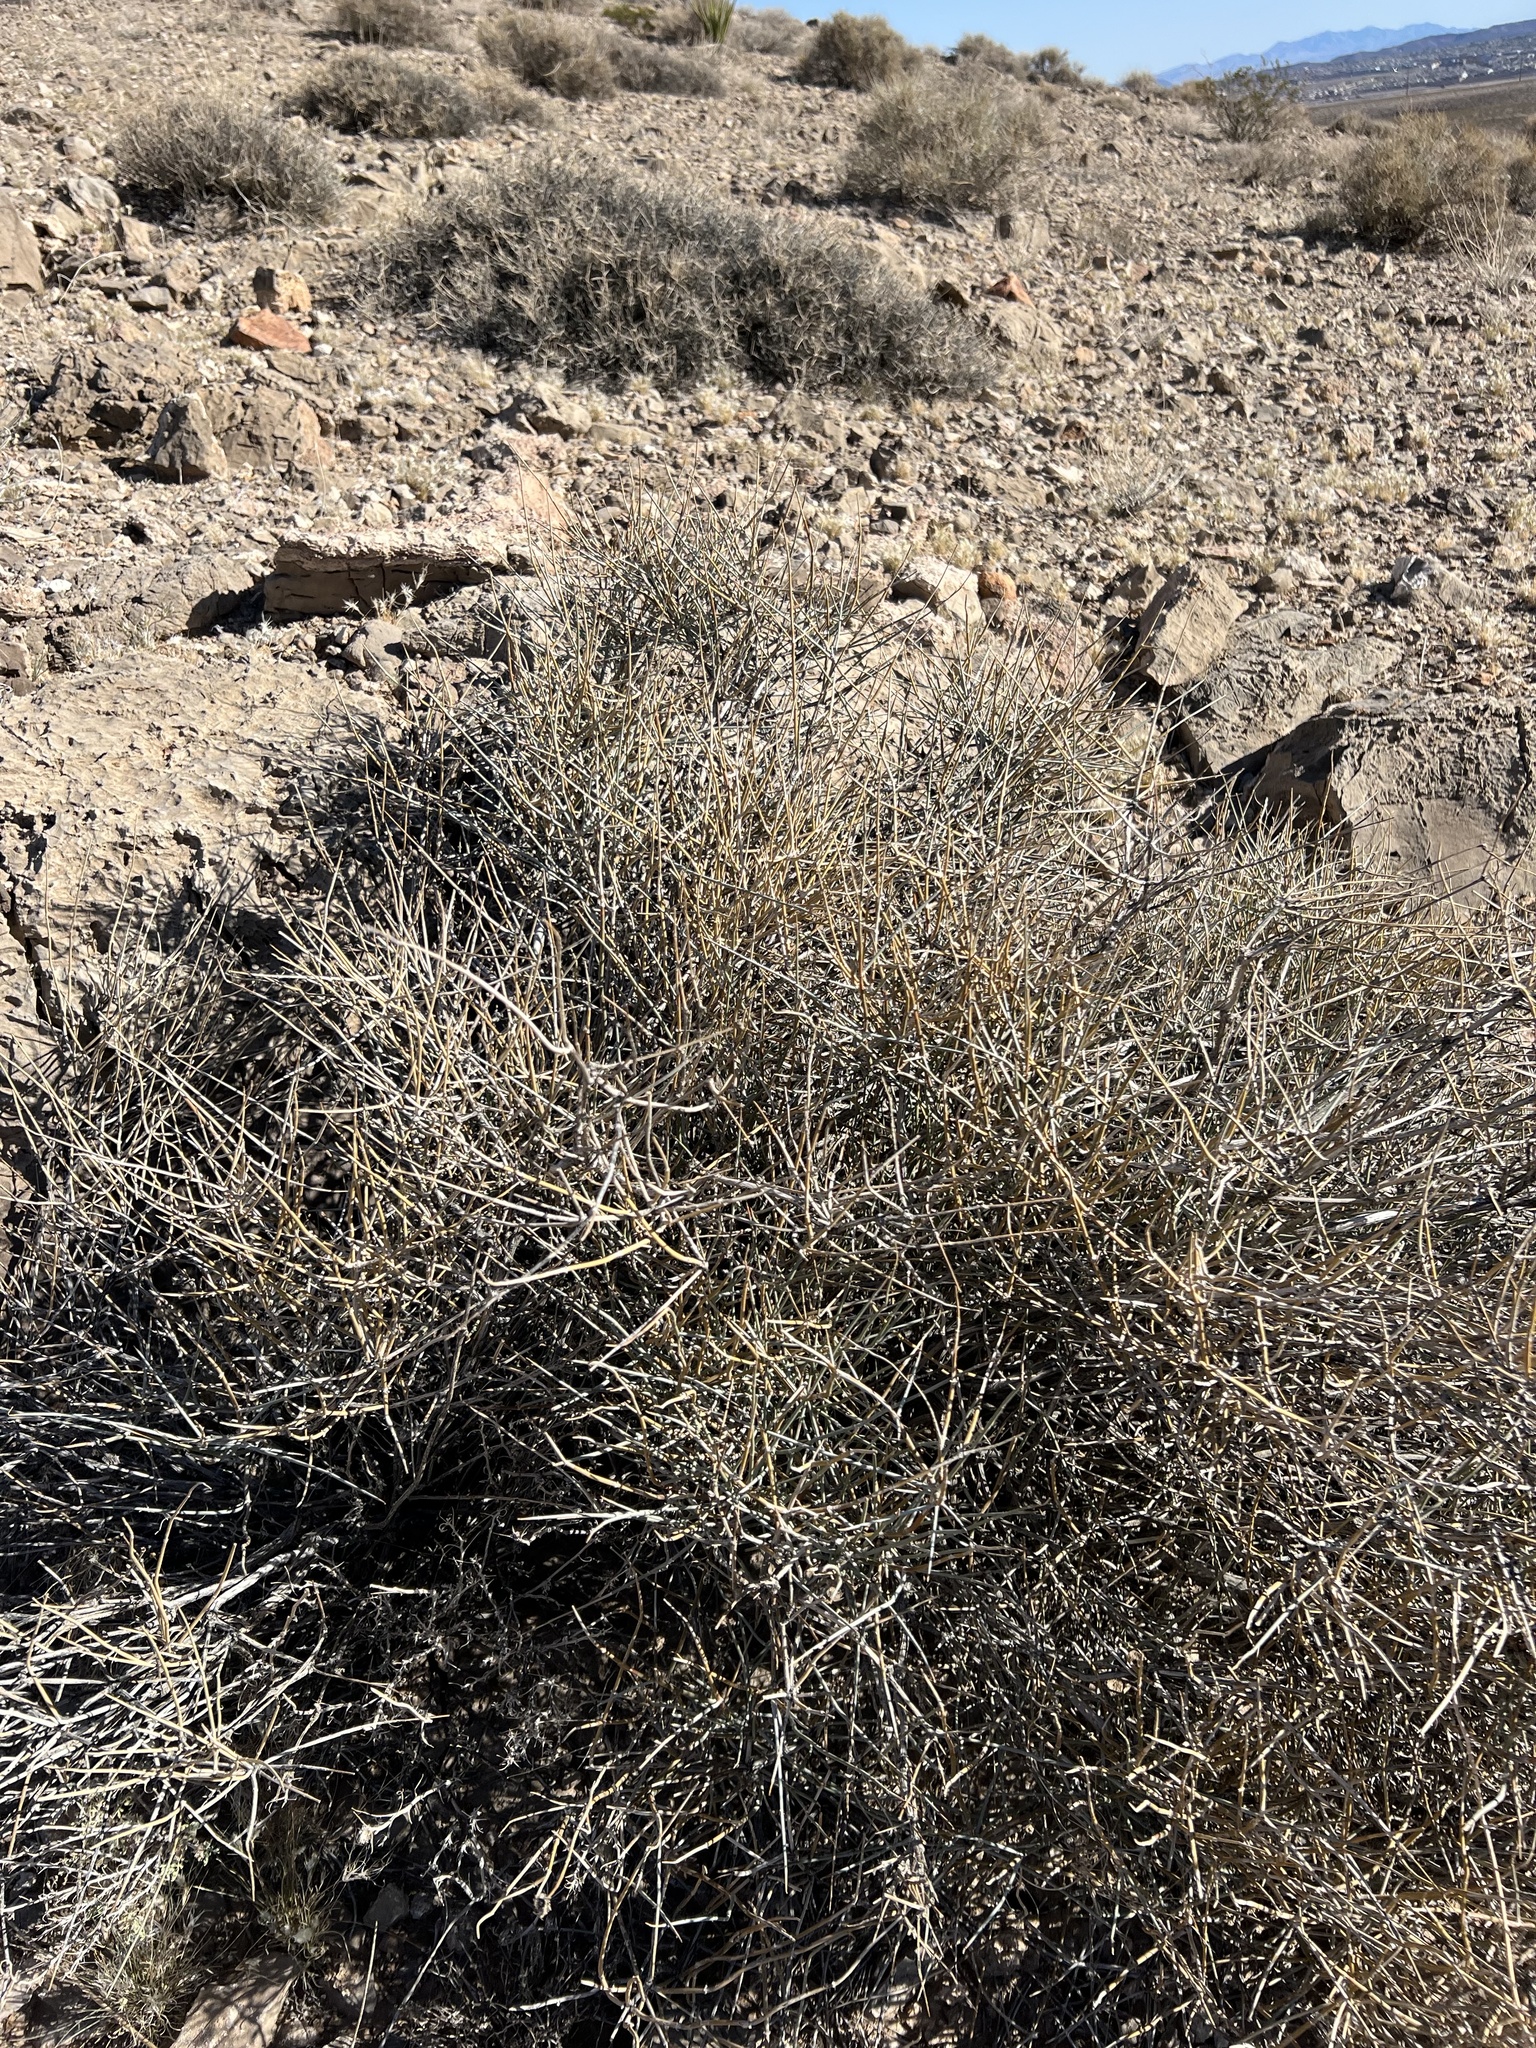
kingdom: Plantae
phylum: Tracheophyta
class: Gnetopsida
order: Ephedrales
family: Ephedraceae
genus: Ephedra
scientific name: Ephedra nevadensis
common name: Gray ephedra
